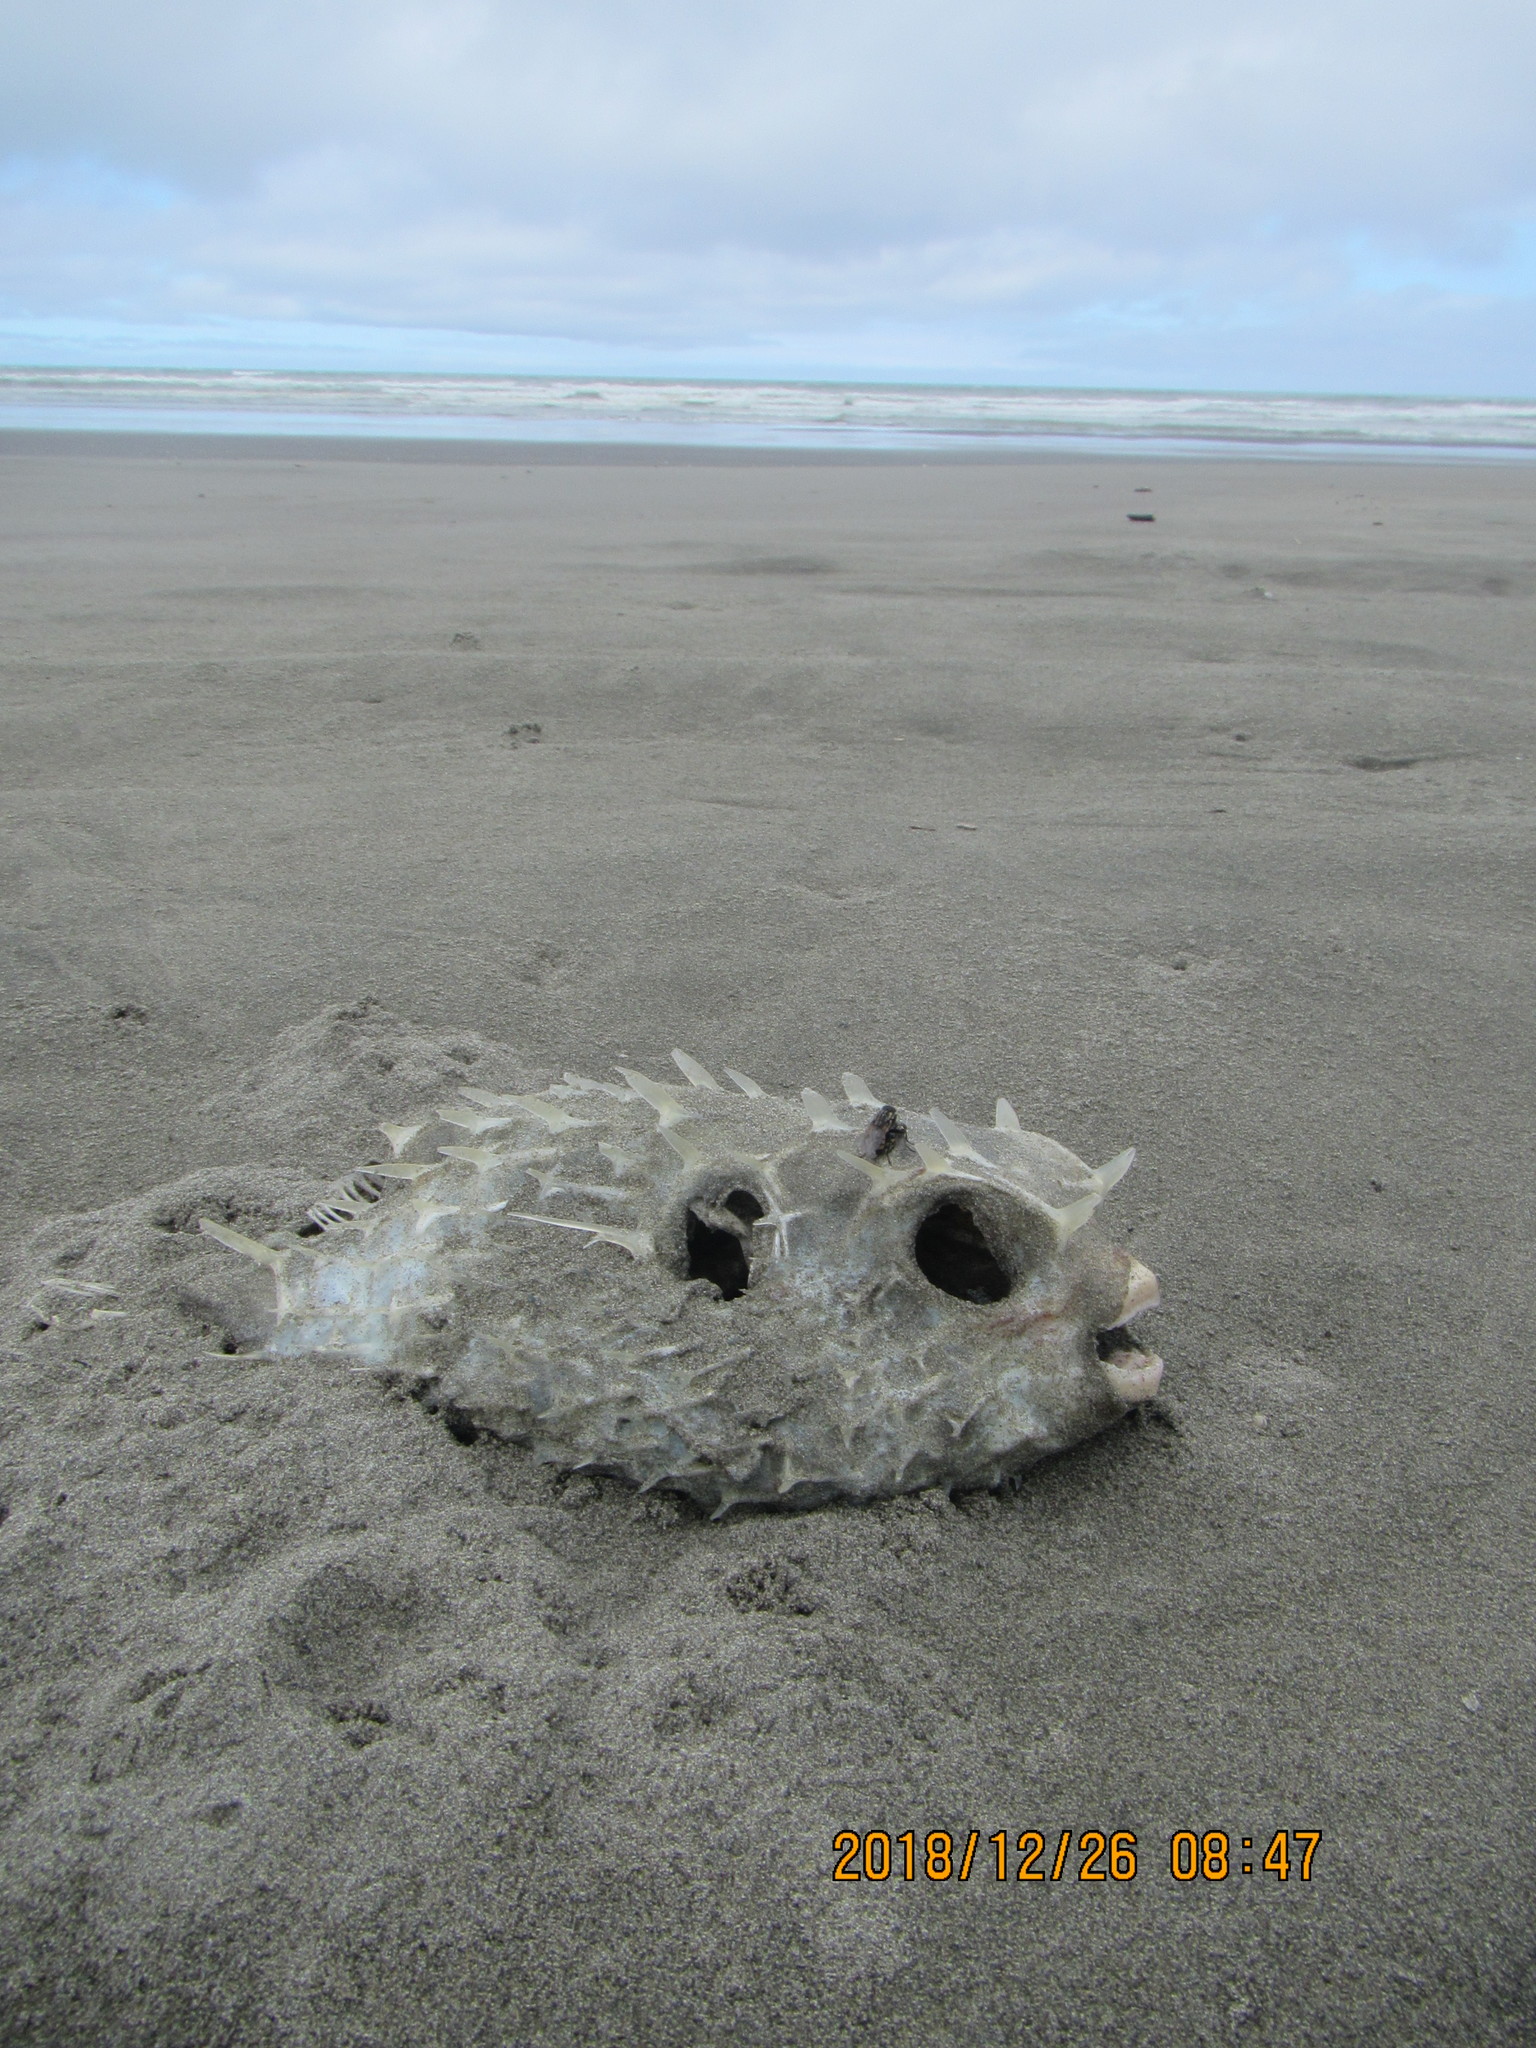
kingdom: Animalia
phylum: Chordata
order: Tetraodontiformes
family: Diodontidae
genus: Allomycterus
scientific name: Allomycterus pilatus
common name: No common name
